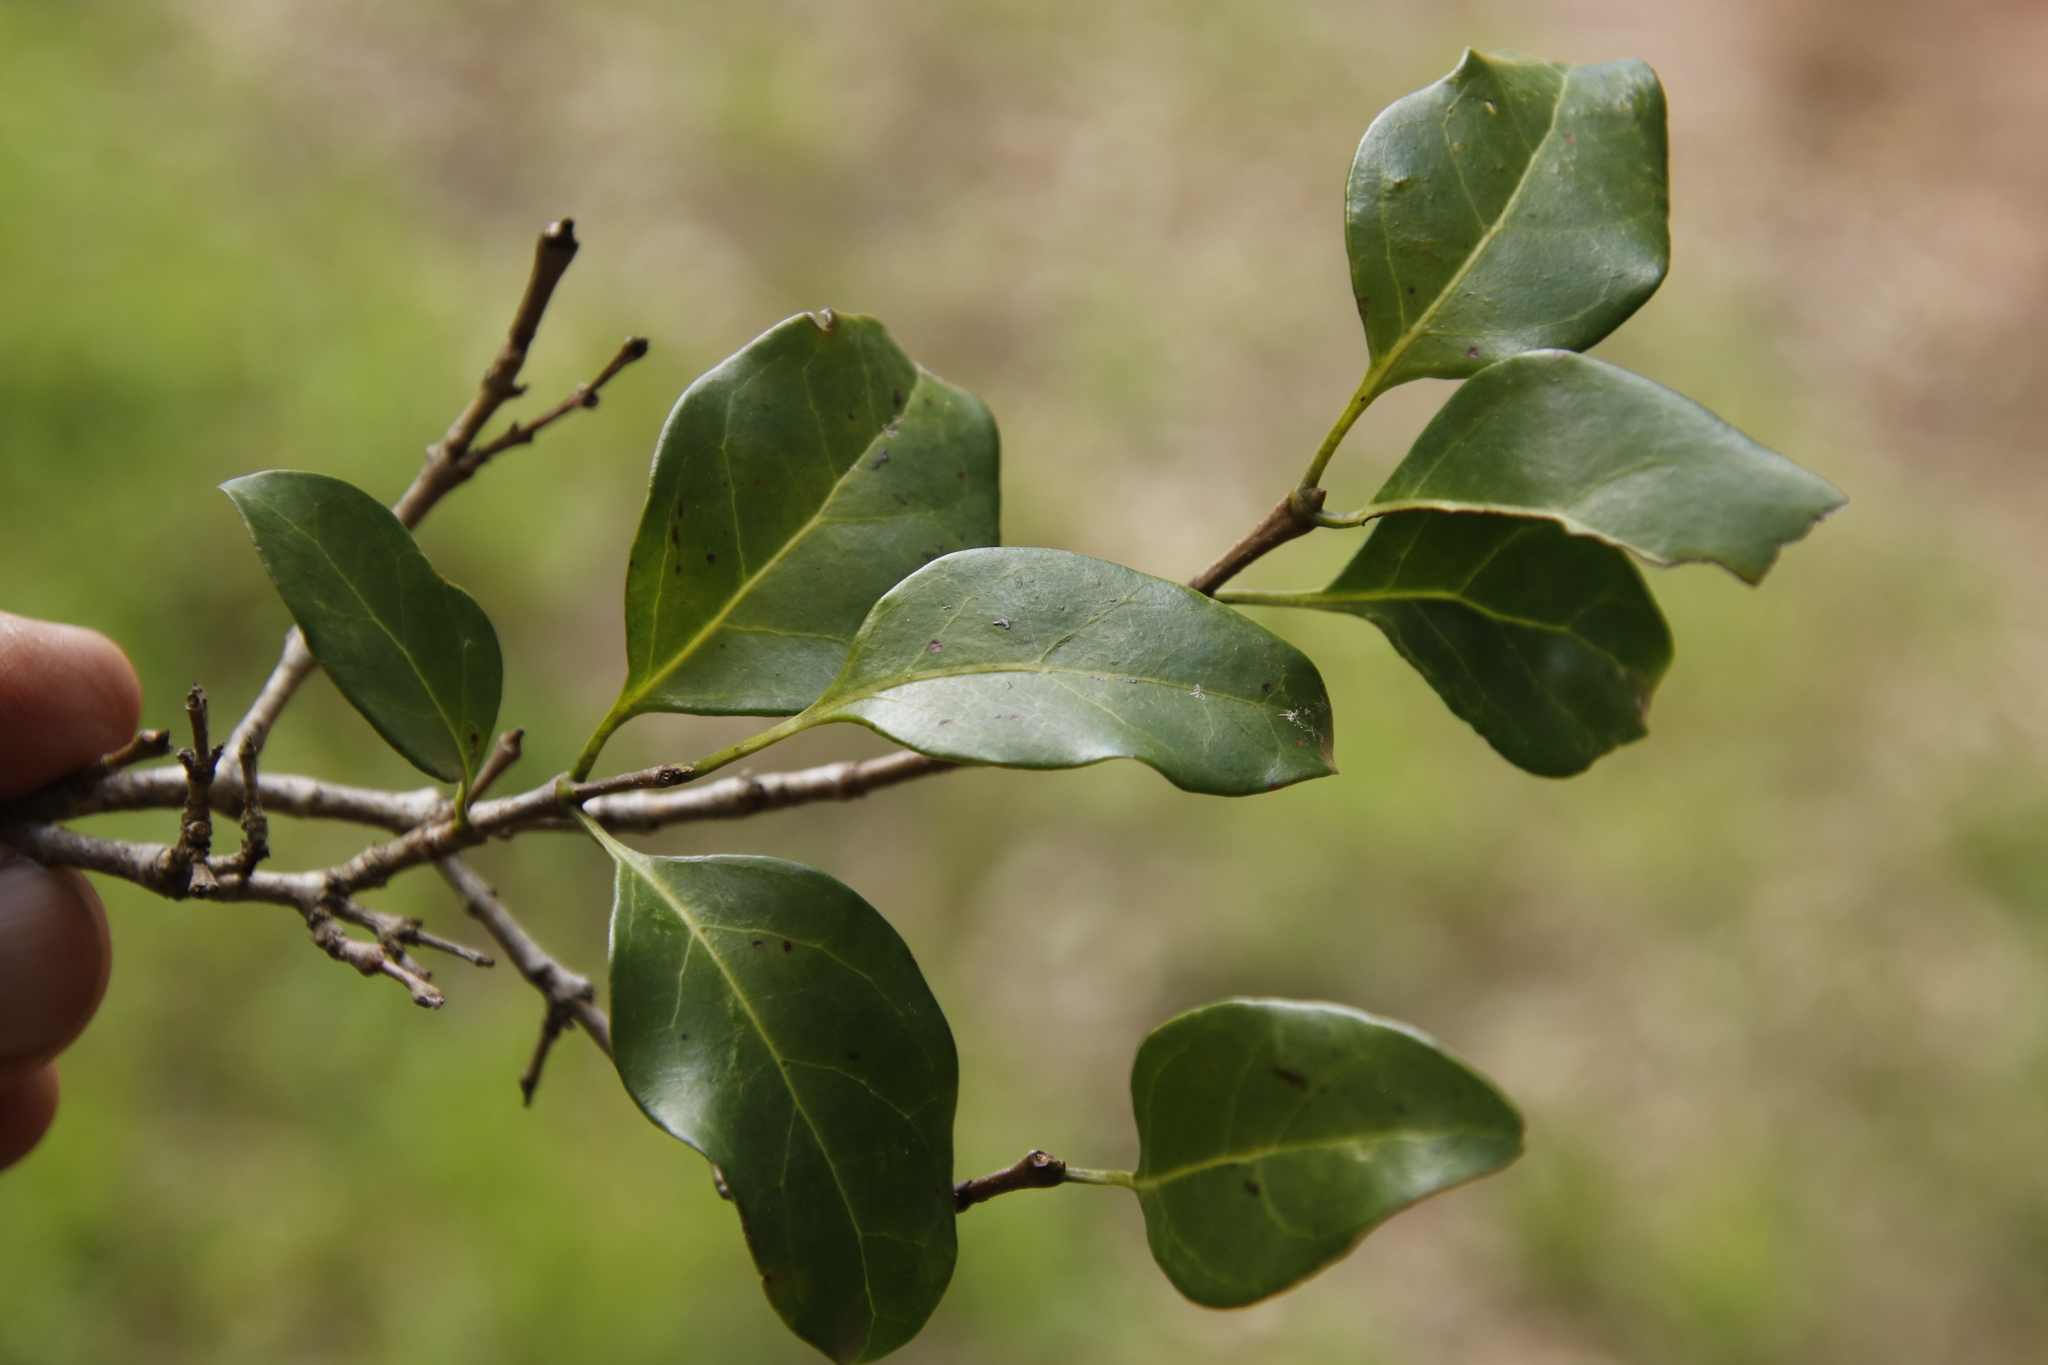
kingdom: Plantae
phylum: Tracheophyta
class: Magnoliopsida
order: Gentianales
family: Rubiaceae
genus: Canthium
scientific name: Canthium inerme
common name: Unarmed turkey-berry
